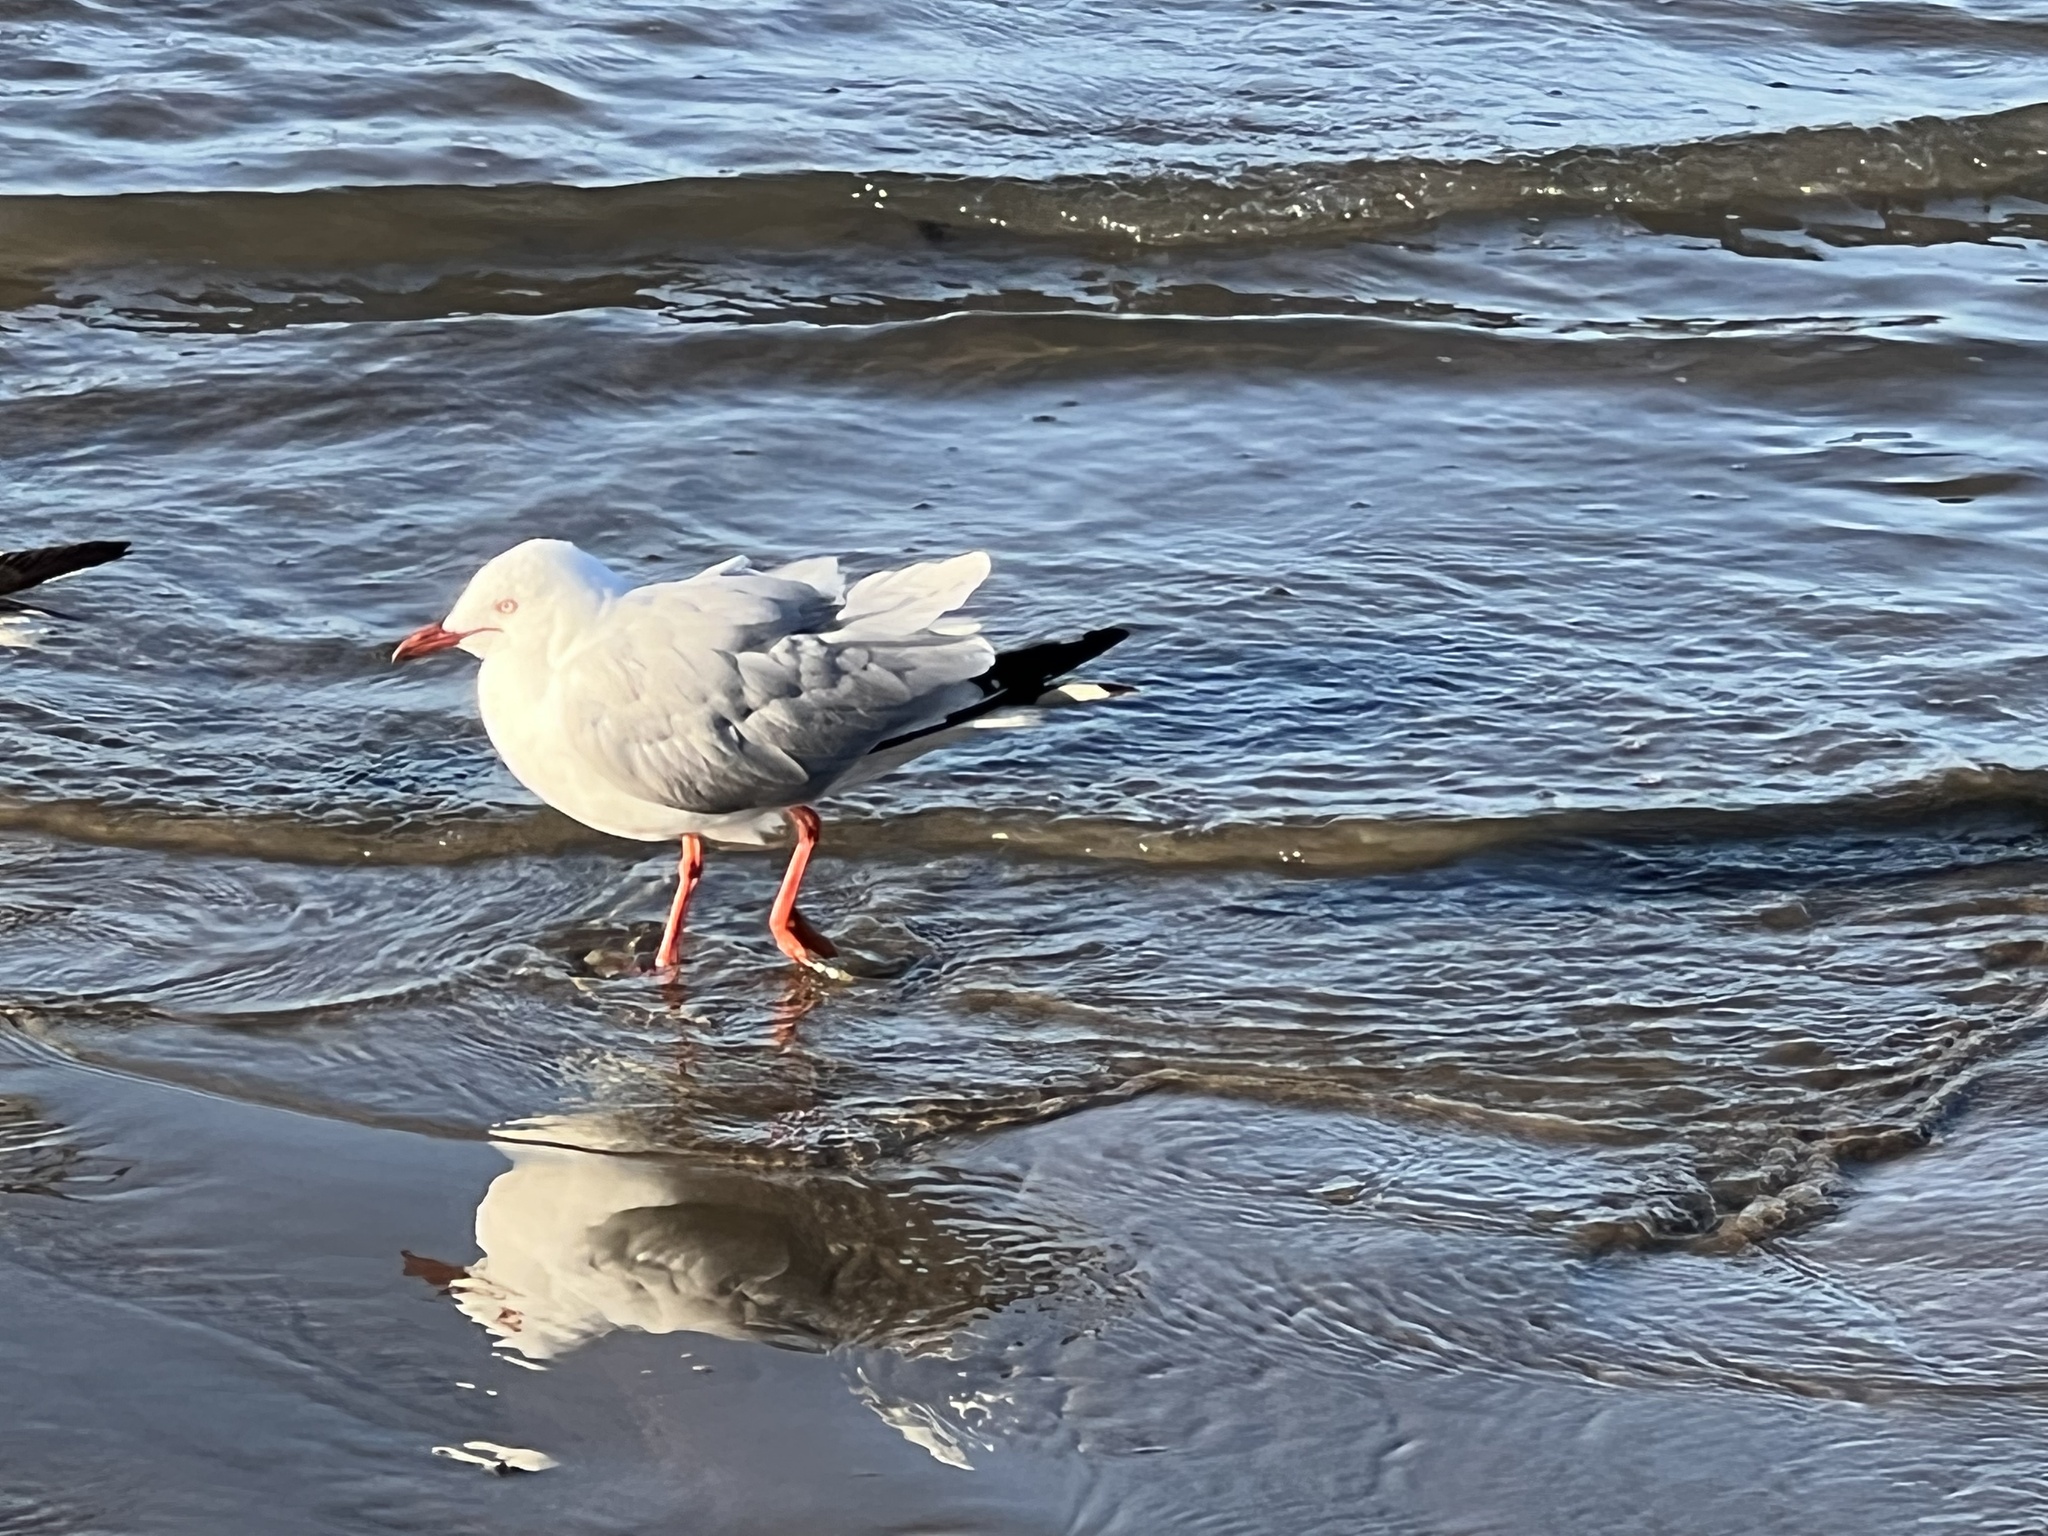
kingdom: Animalia
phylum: Chordata
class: Aves
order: Charadriiformes
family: Laridae
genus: Chroicocephalus
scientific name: Chroicocephalus novaehollandiae
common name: Silver gull
